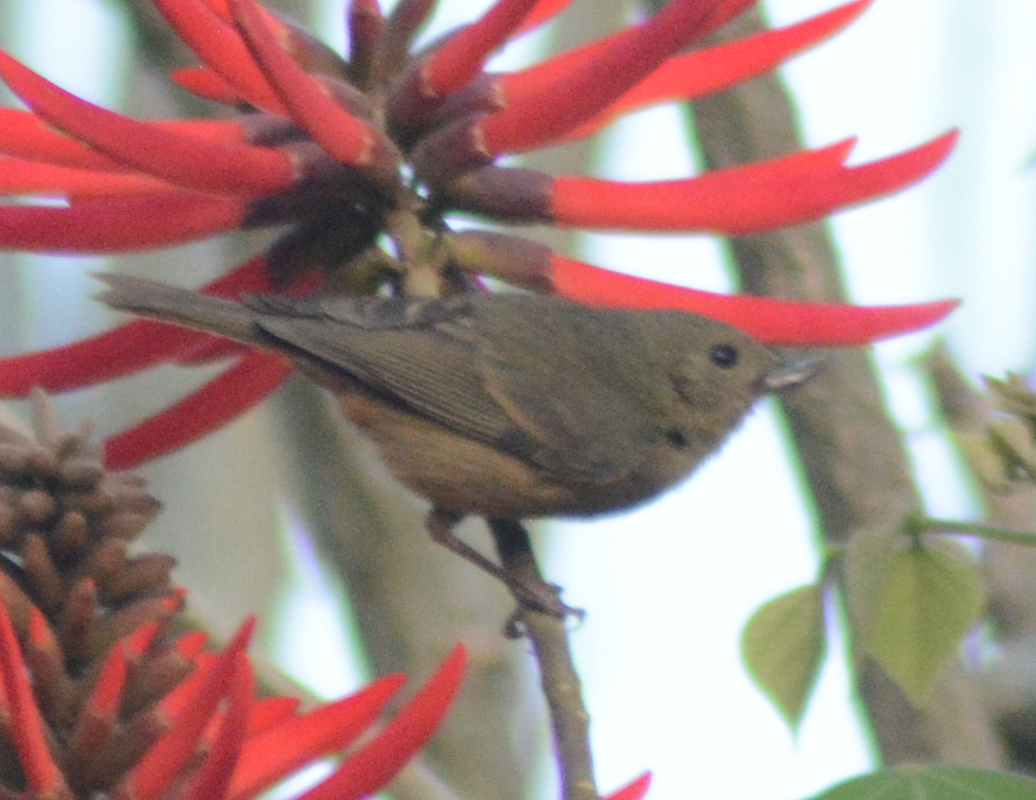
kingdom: Animalia
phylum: Chordata
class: Aves
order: Passeriformes
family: Thraupidae
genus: Diglossa
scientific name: Diglossa baritula
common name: Cinnamon-bellied flowerpiercer
